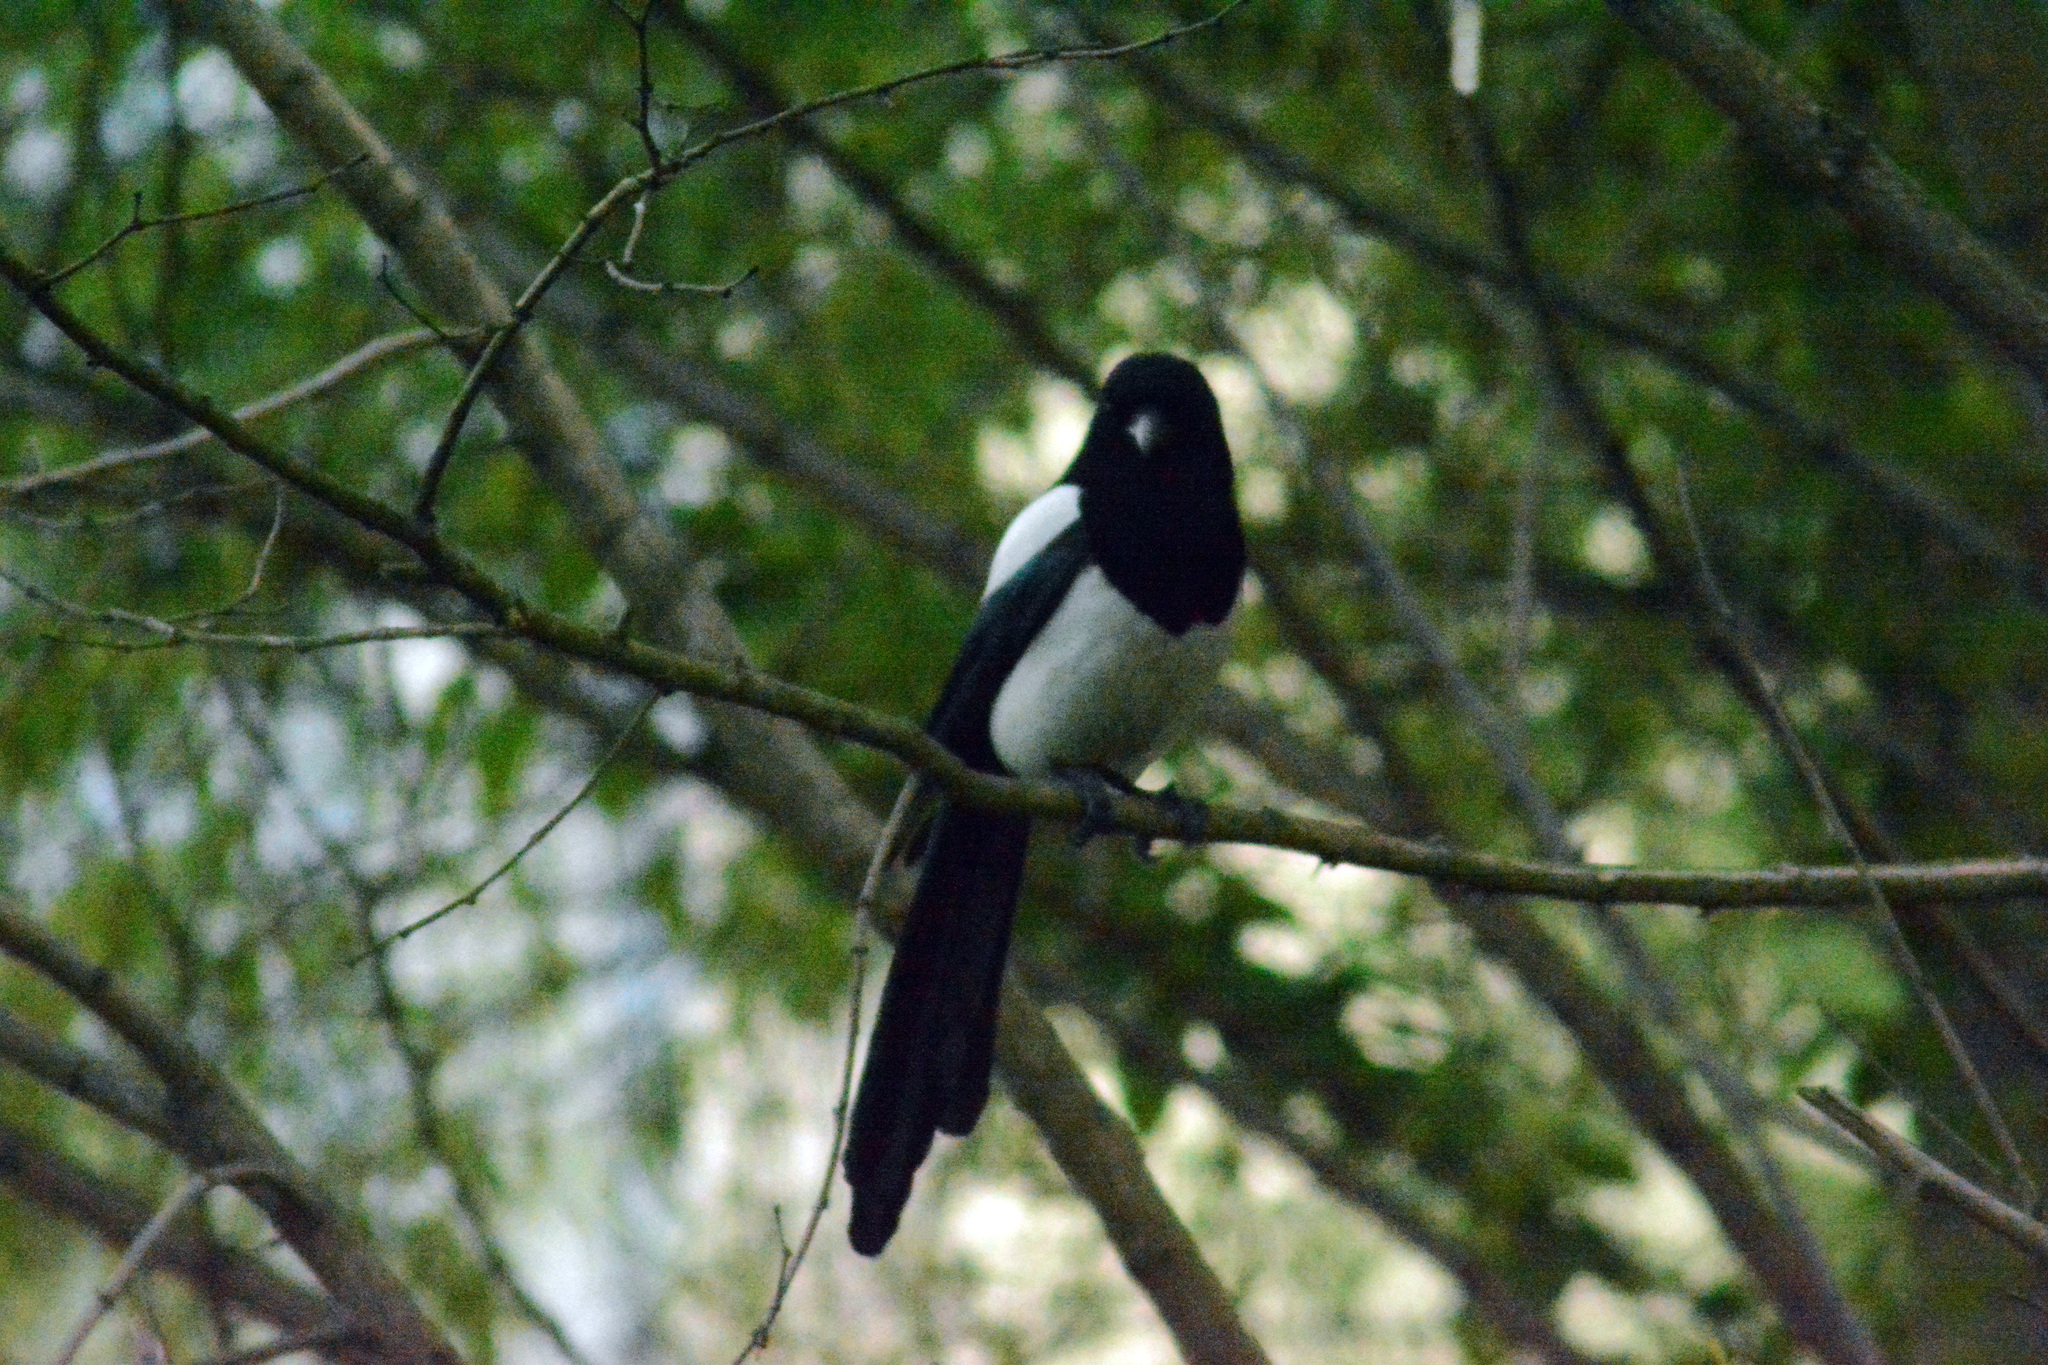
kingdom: Animalia
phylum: Chordata
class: Aves
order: Passeriformes
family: Corvidae
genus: Pica
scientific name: Pica pica
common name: Eurasian magpie
